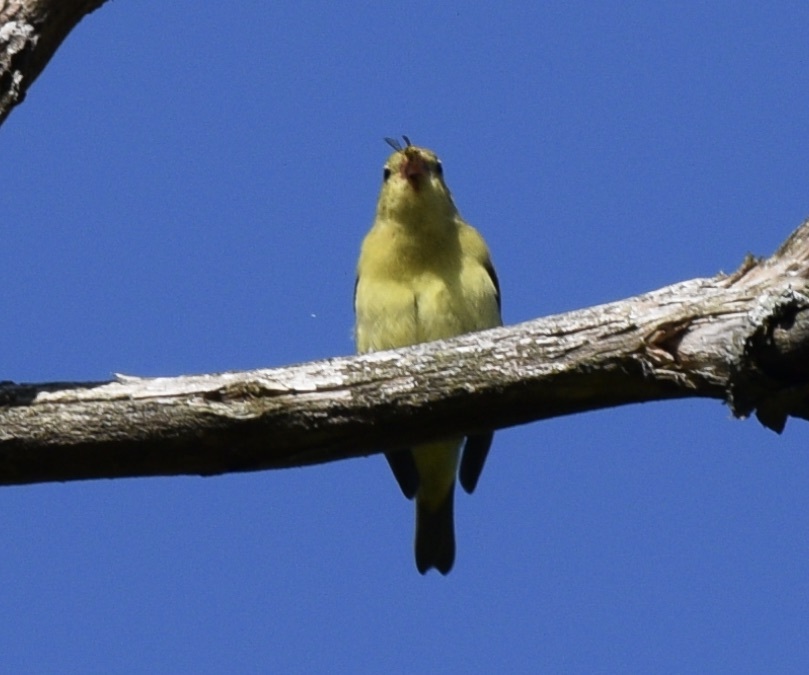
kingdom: Animalia
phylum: Chordata
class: Aves
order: Passeriformes
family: Cardinalidae
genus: Piranga
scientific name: Piranga olivacea
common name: Scarlet tanager
